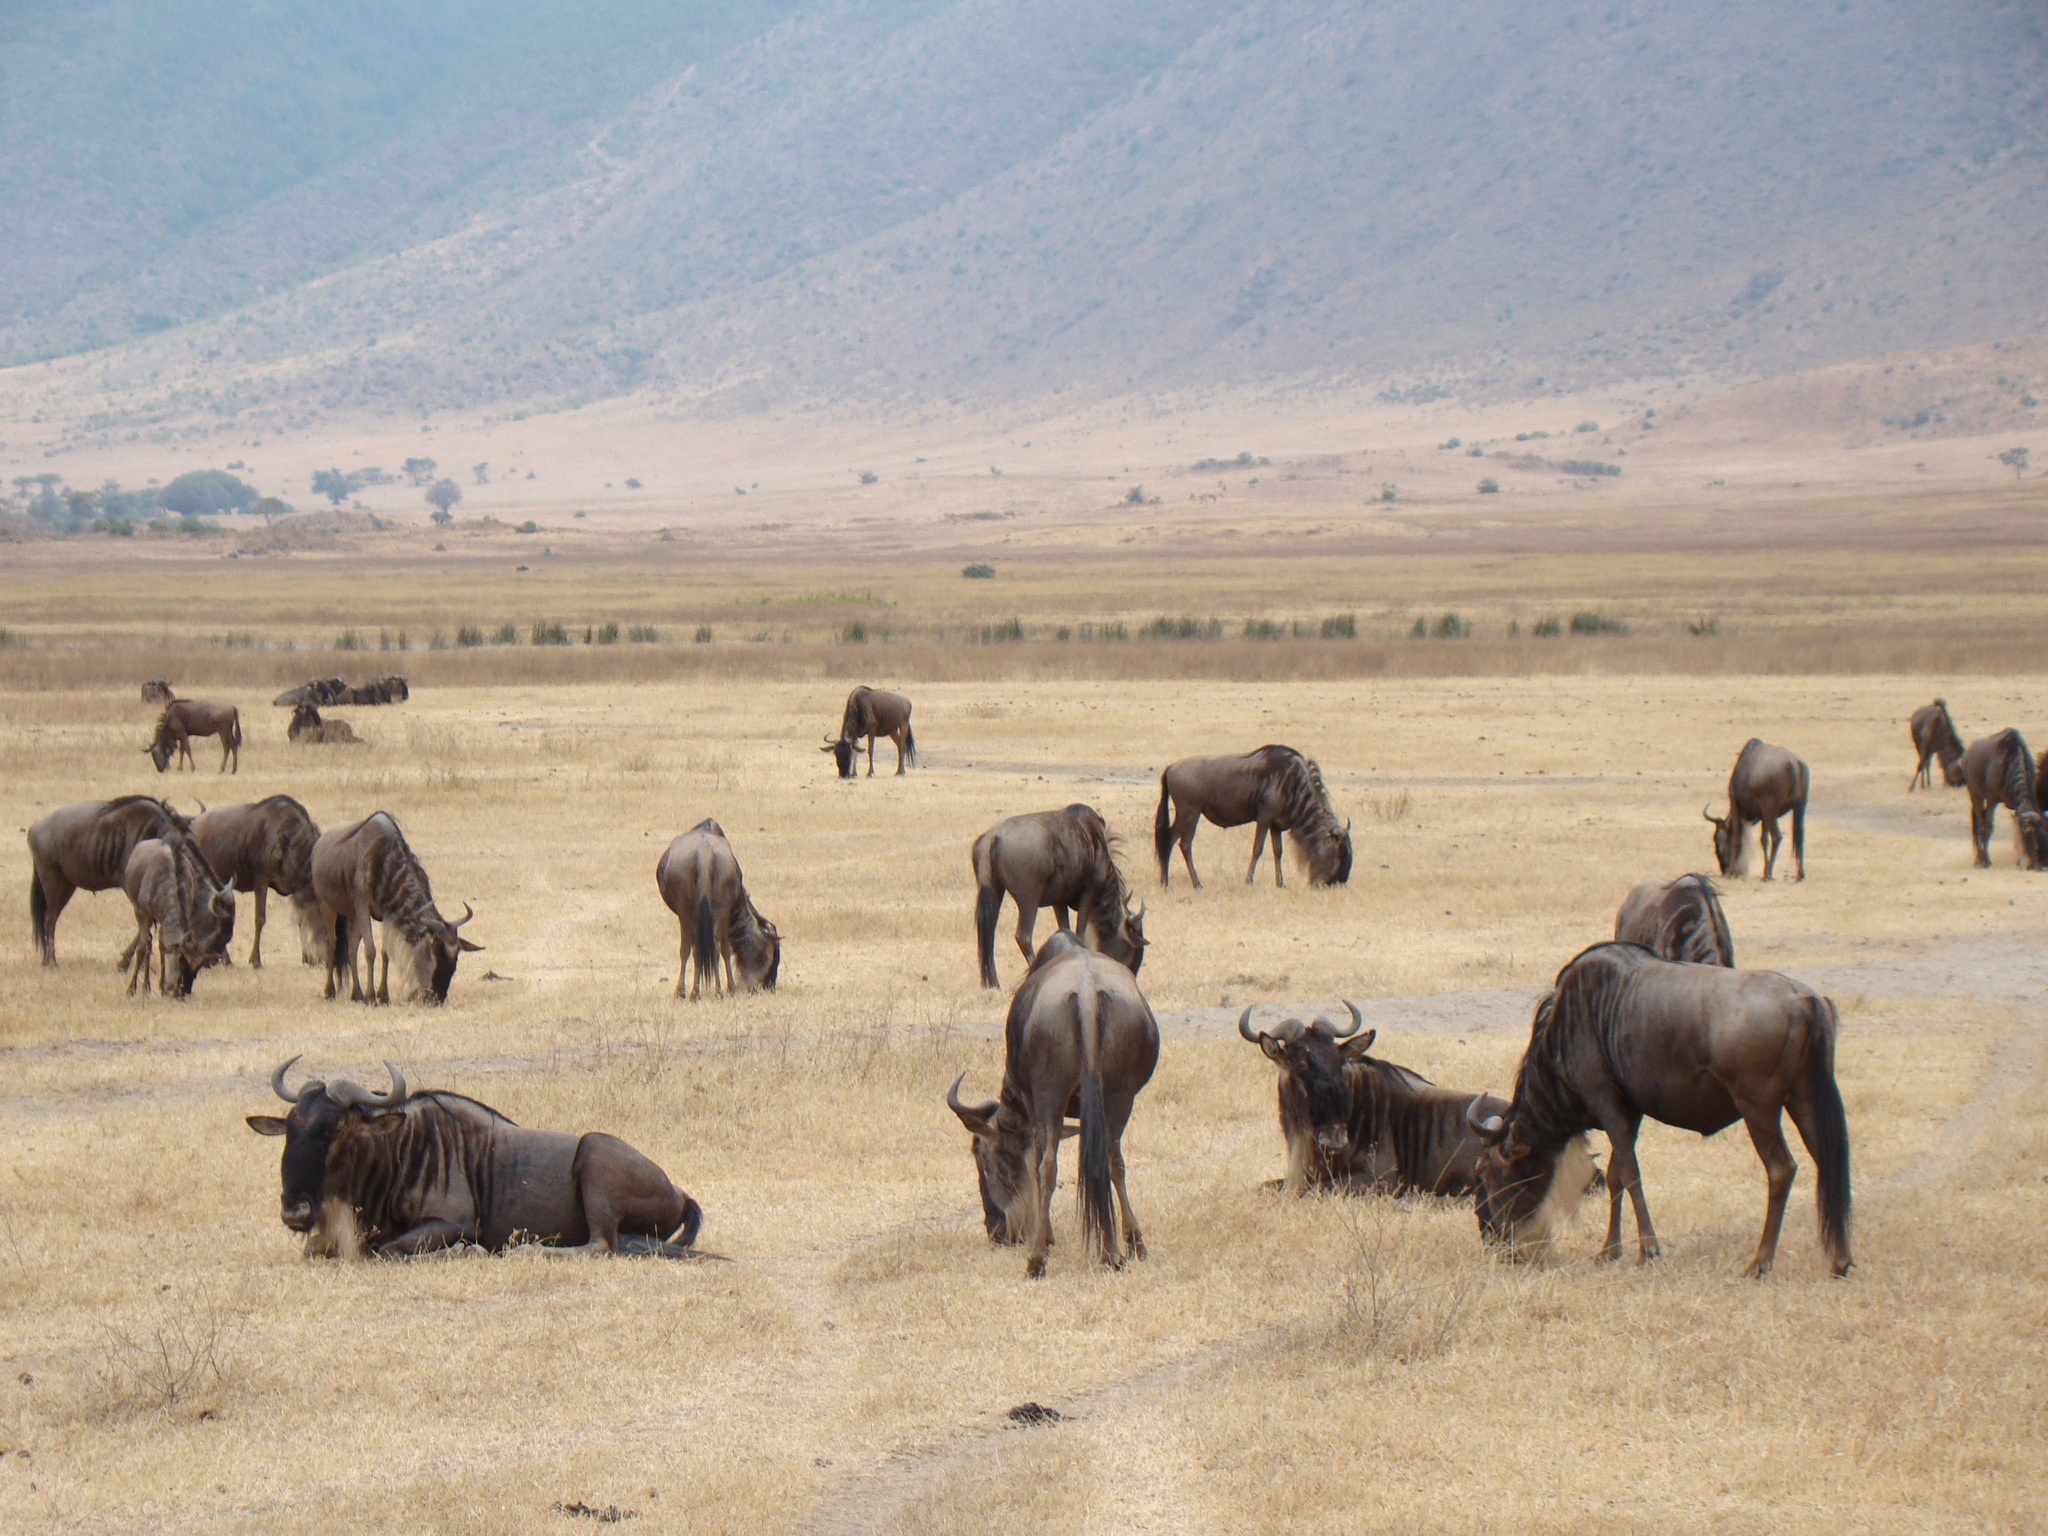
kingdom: Animalia
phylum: Chordata
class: Mammalia
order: Artiodactyla
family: Bovidae
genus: Connochaetes
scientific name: Connochaetes taurinus
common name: Blue wildebeest
